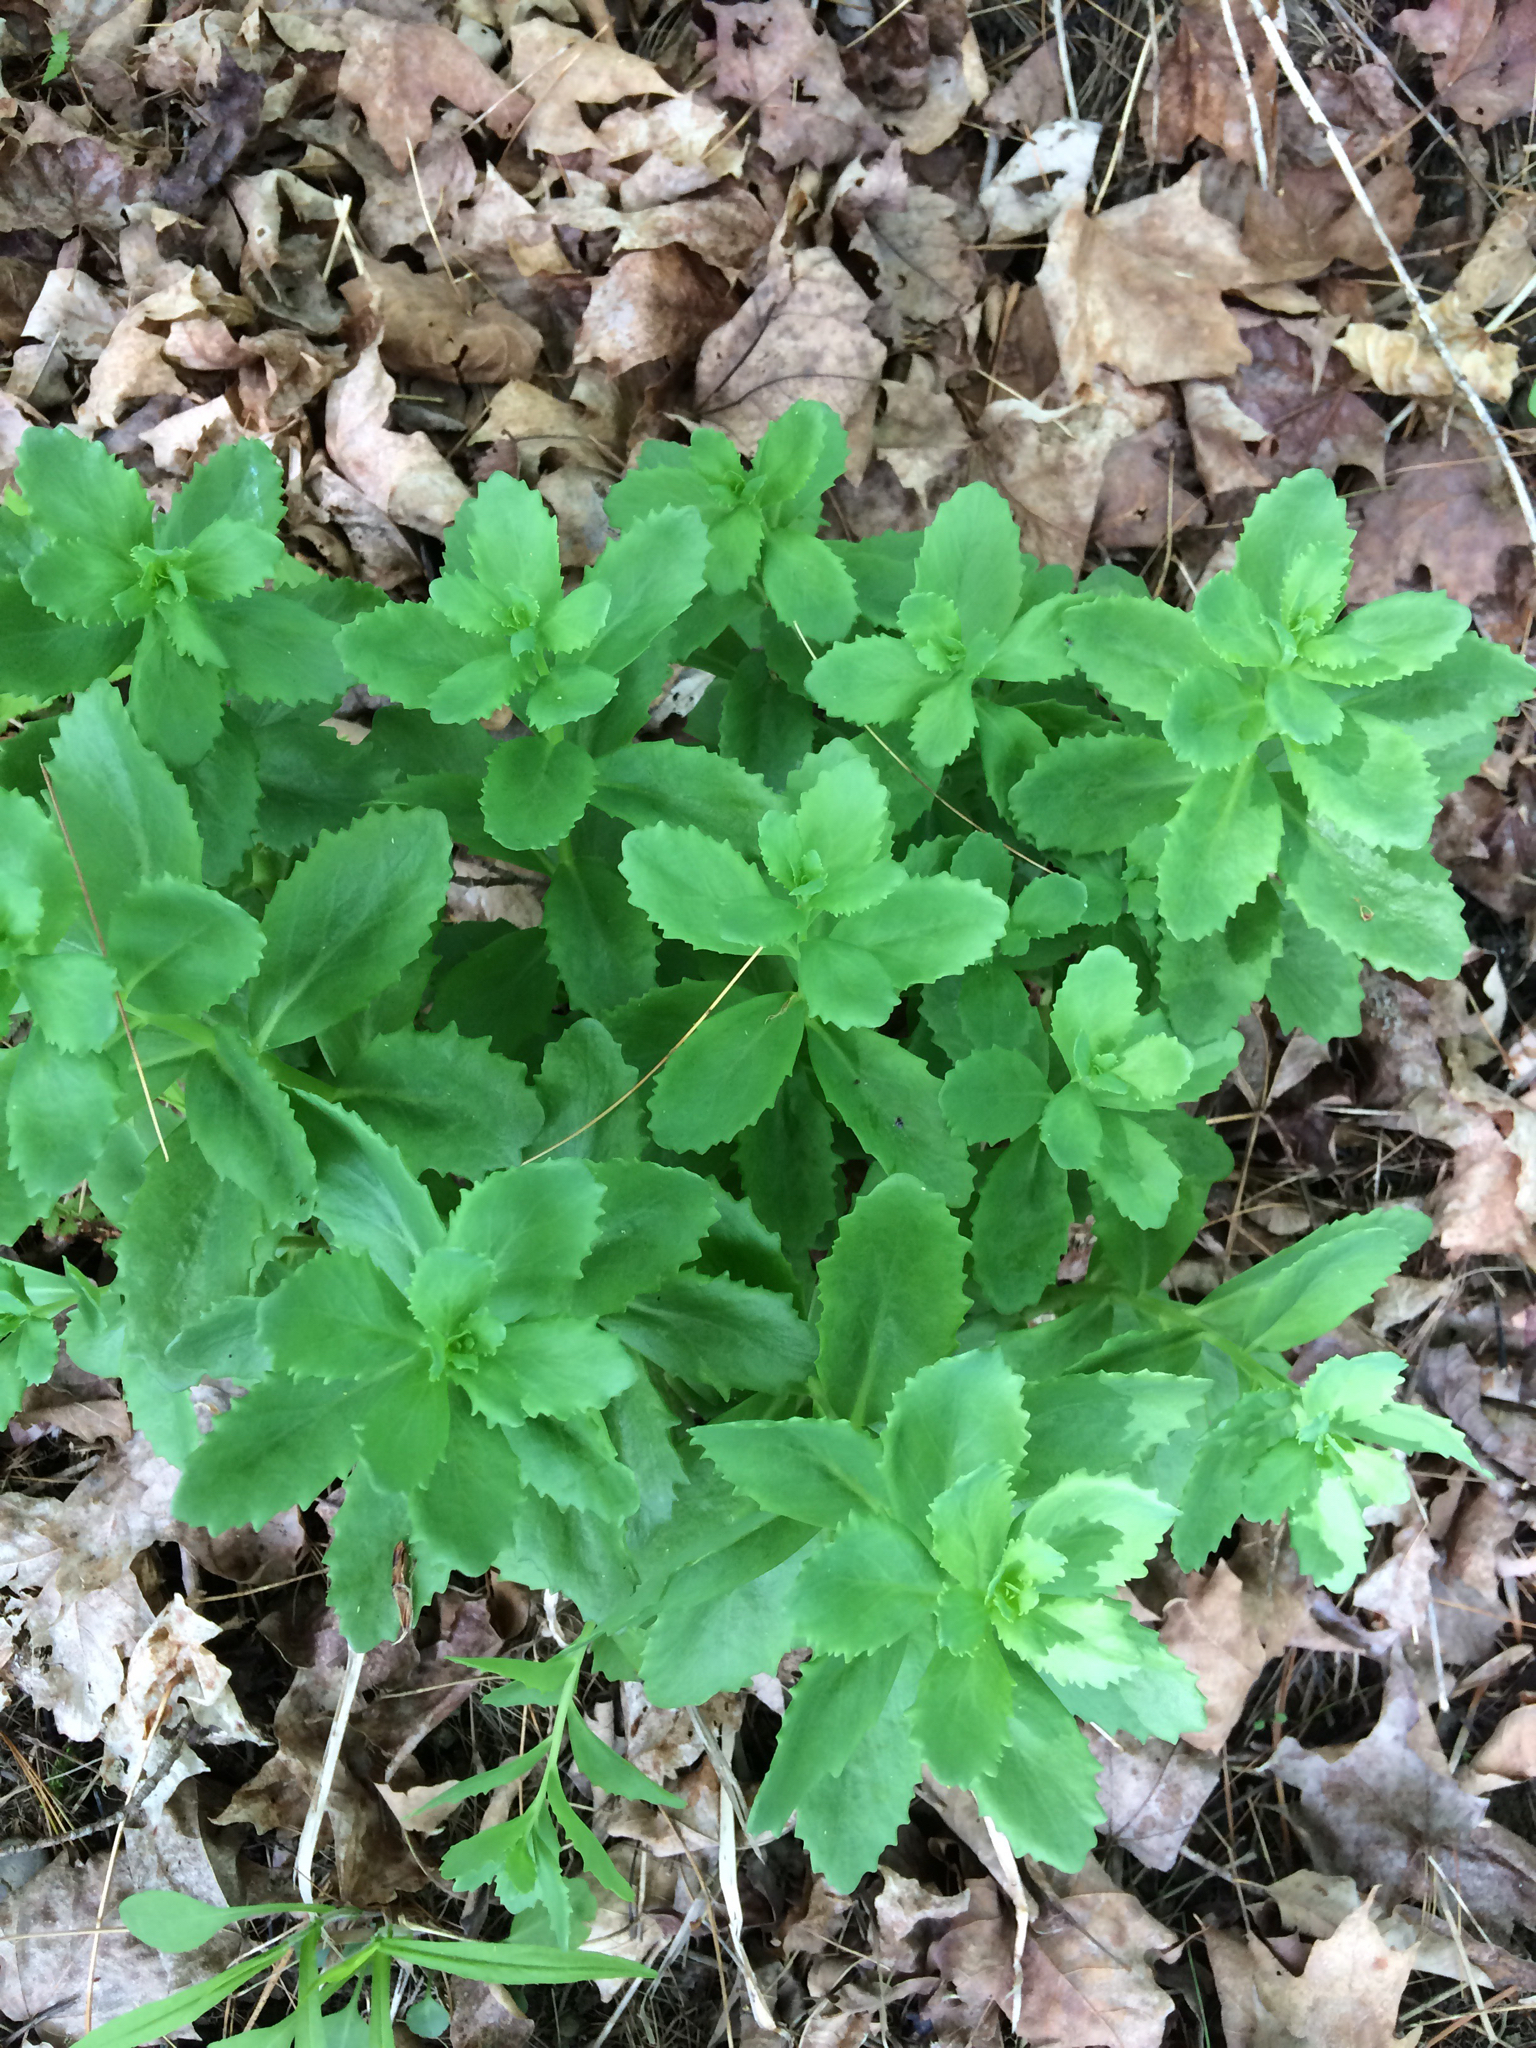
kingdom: Plantae
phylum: Tracheophyta
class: Magnoliopsida
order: Saxifragales
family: Crassulaceae
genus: Hylotelephium
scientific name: Hylotelephium
